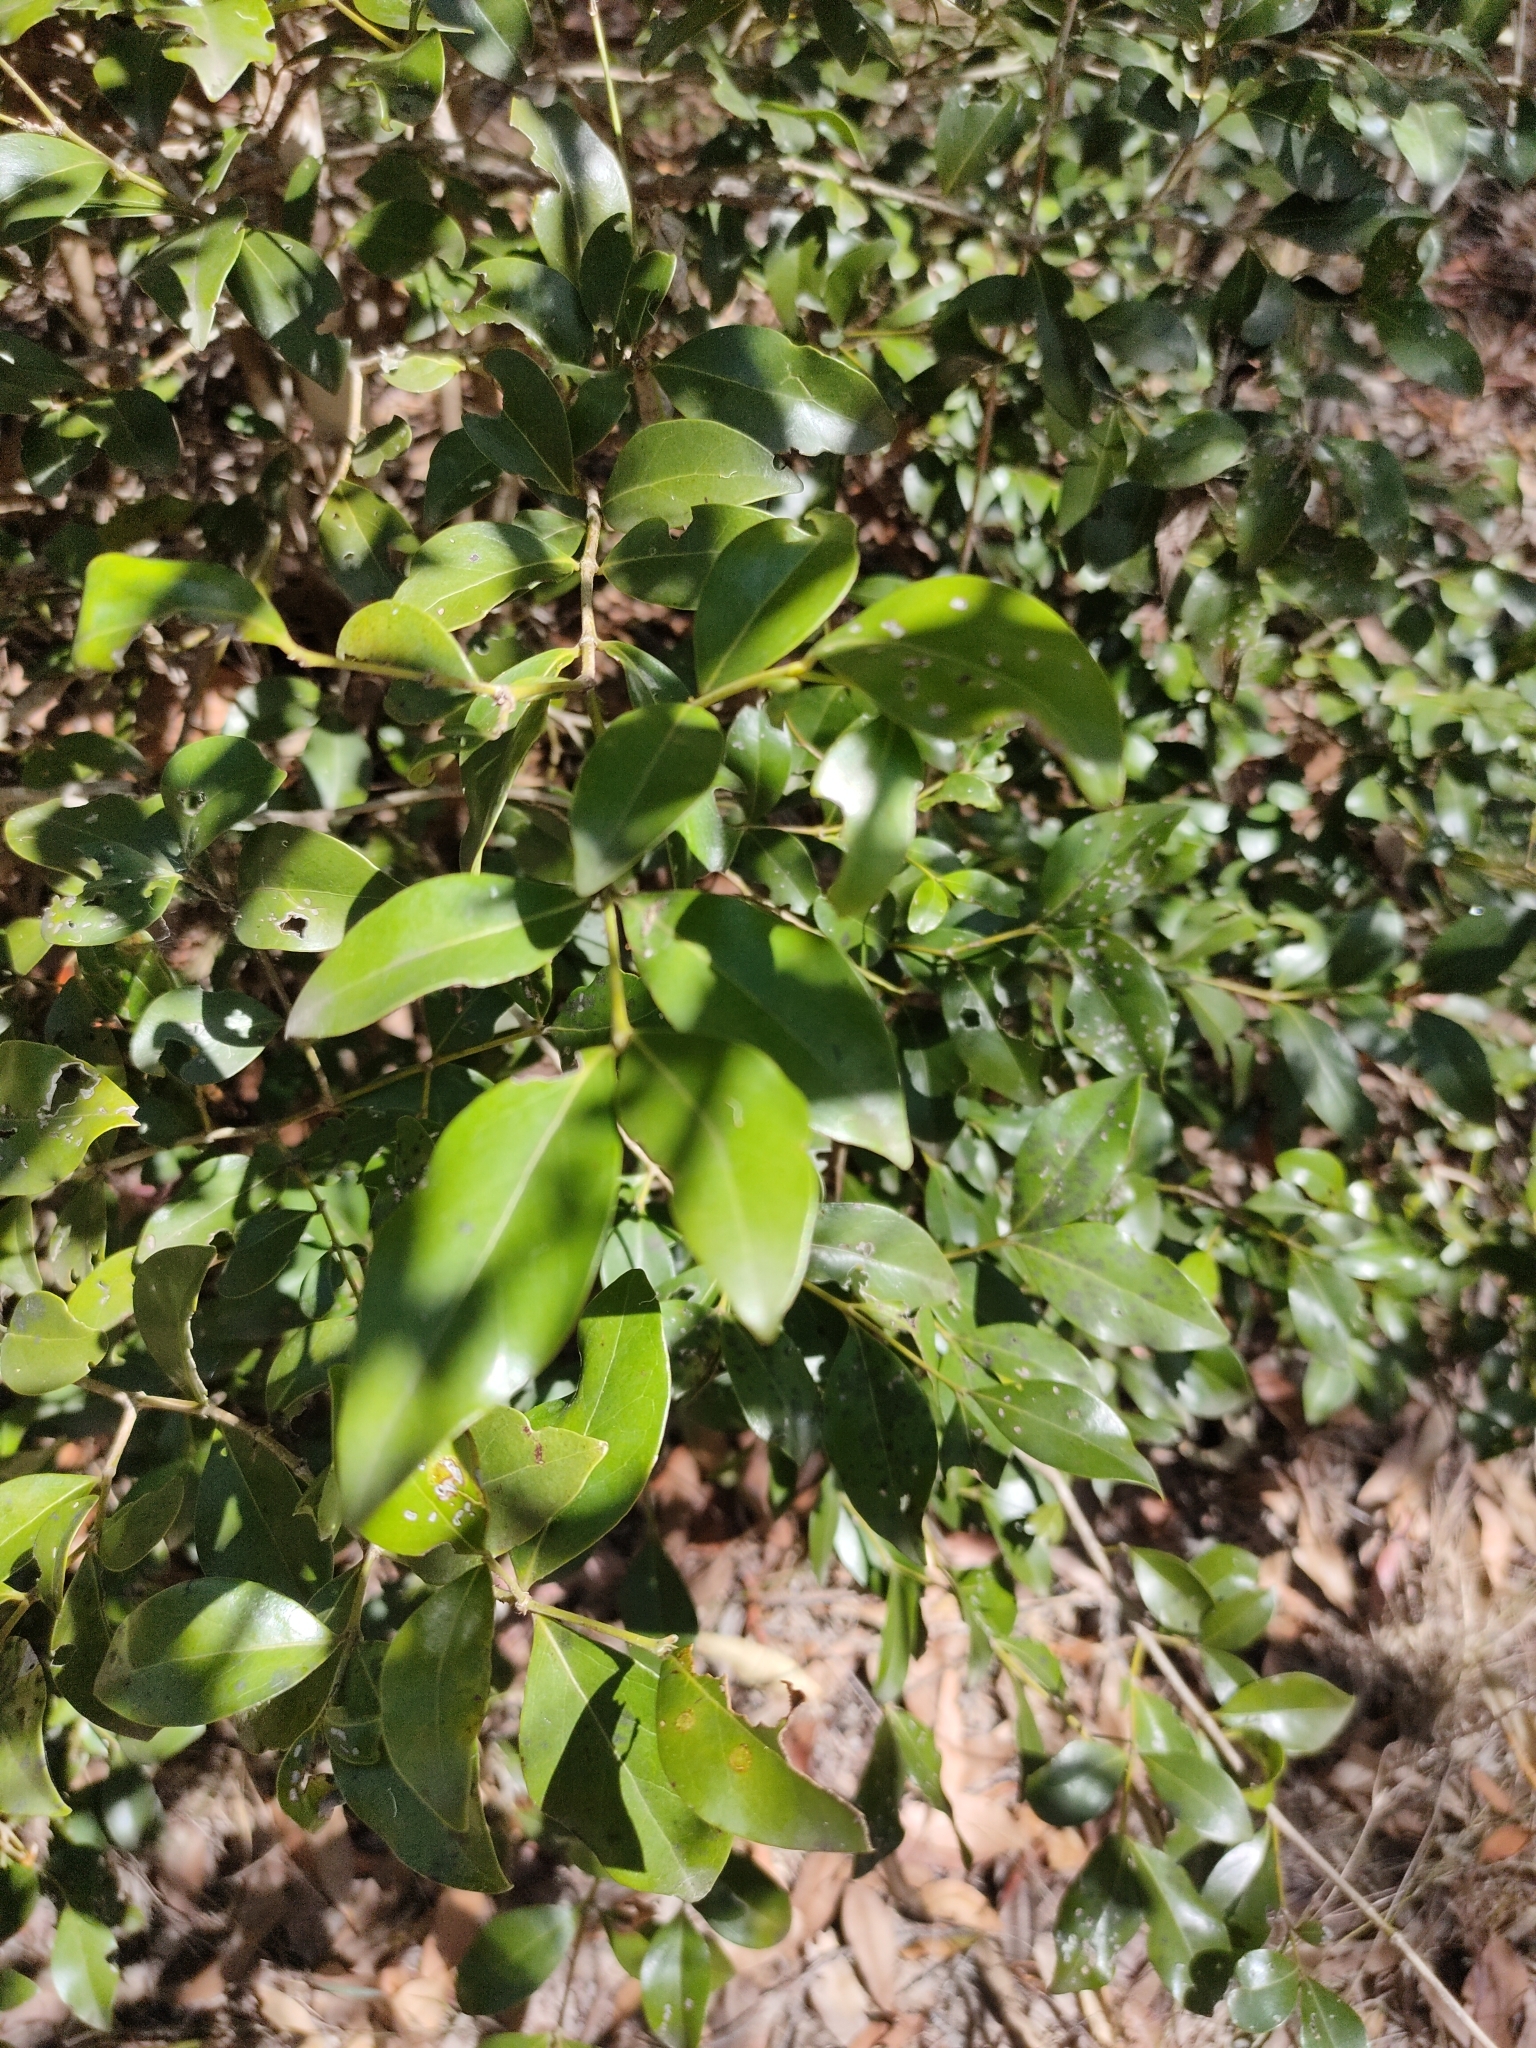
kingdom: Plantae
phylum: Tracheophyta
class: Magnoliopsida
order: Gentianales
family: Rubiaceae
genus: Psydrax
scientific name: Psydrax odoratus
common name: Alahe'e
